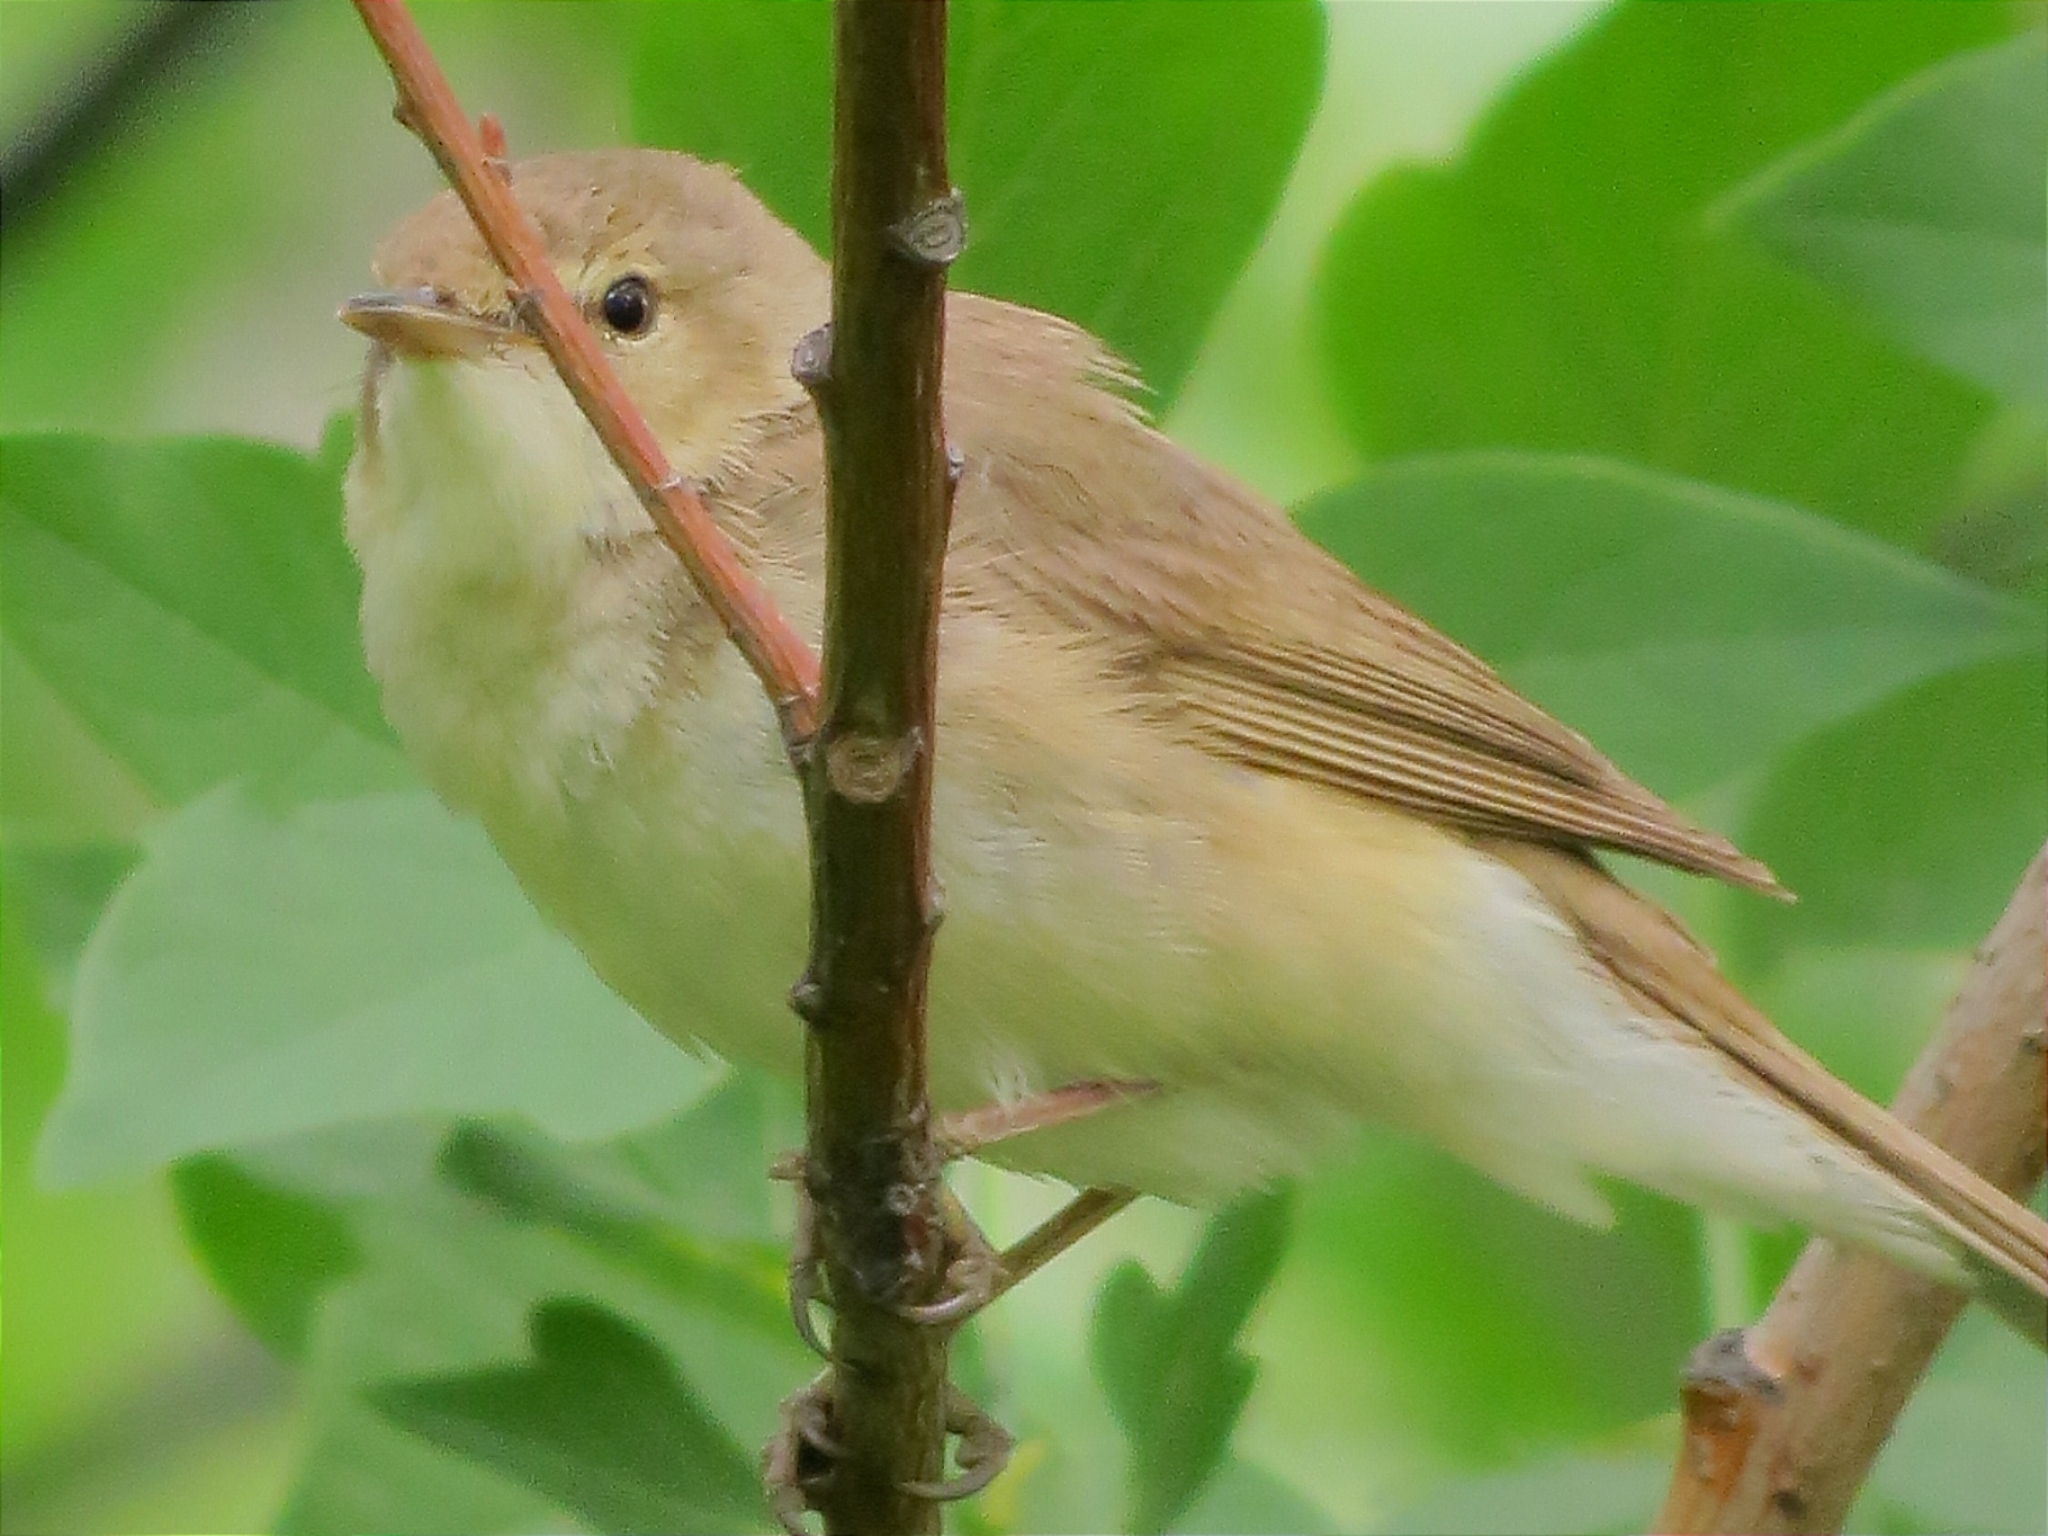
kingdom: Animalia
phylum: Chordata
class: Aves
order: Passeriformes
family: Acrocephalidae
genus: Acrocephalus
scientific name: Acrocephalus dumetorum
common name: Blyth's reed warbler
